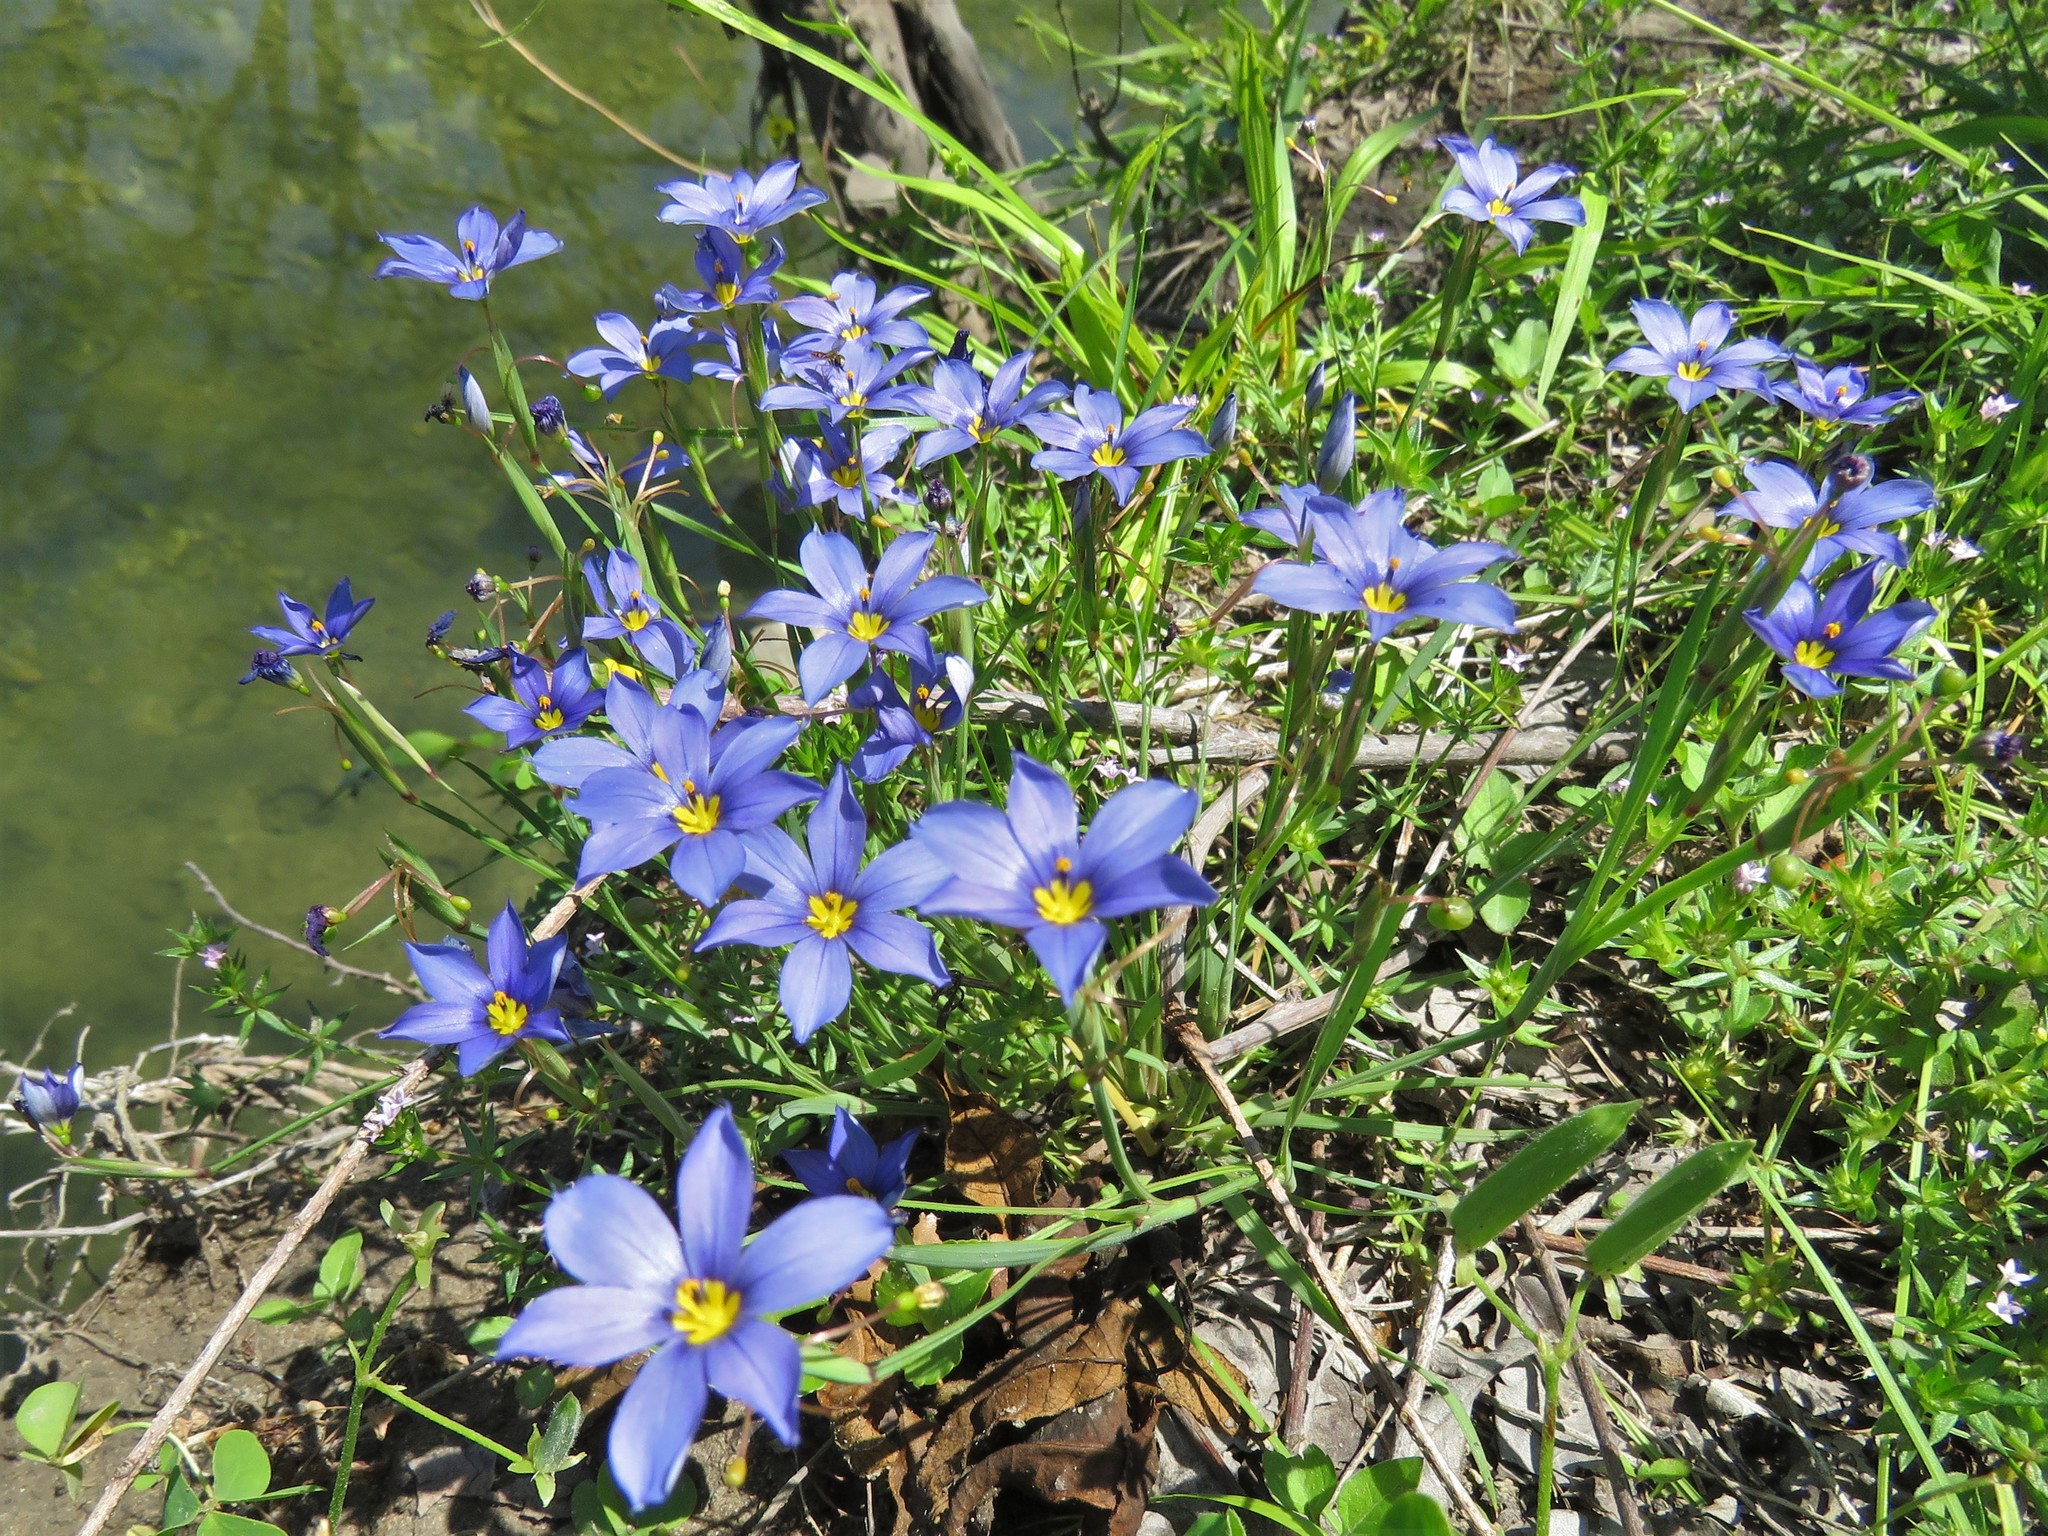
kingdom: Plantae
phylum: Tracheophyta
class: Liliopsida
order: Asparagales
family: Iridaceae
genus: Sisyrinchium
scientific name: Sisyrinchium langloisii
